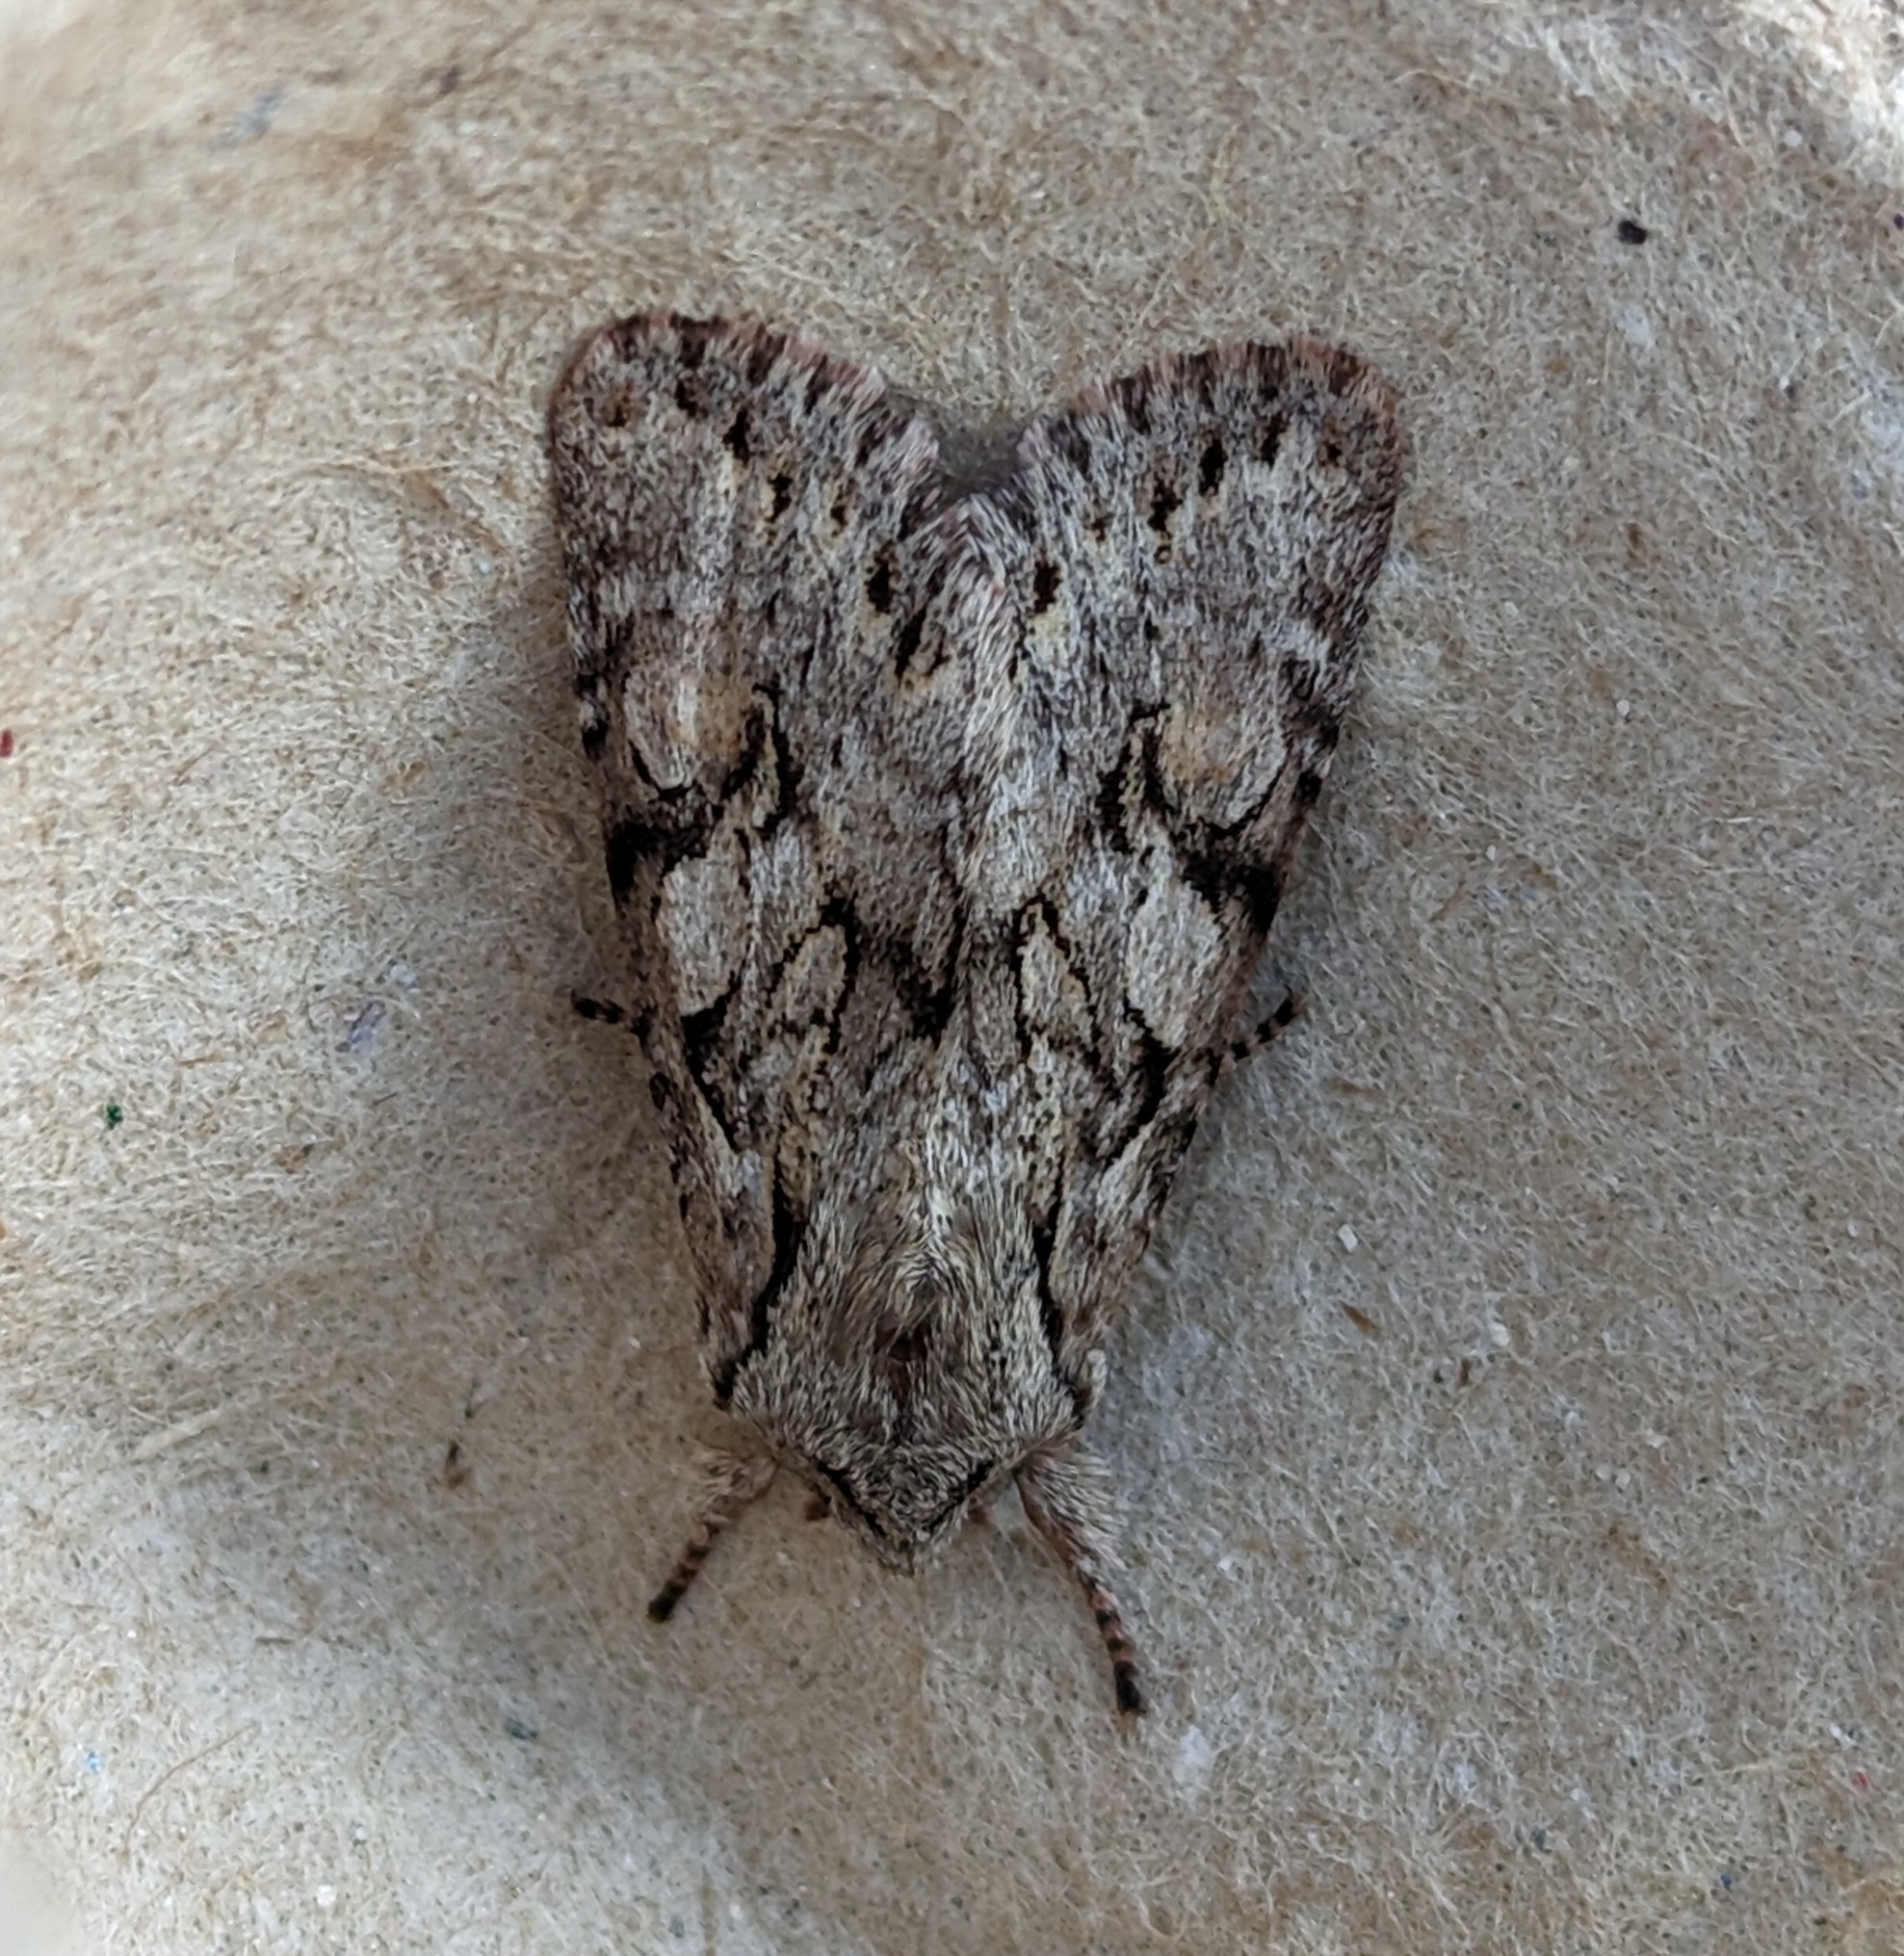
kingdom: Animalia
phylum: Arthropoda
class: Insecta
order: Lepidoptera
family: Noctuidae
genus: Egira
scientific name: Egira simplex
